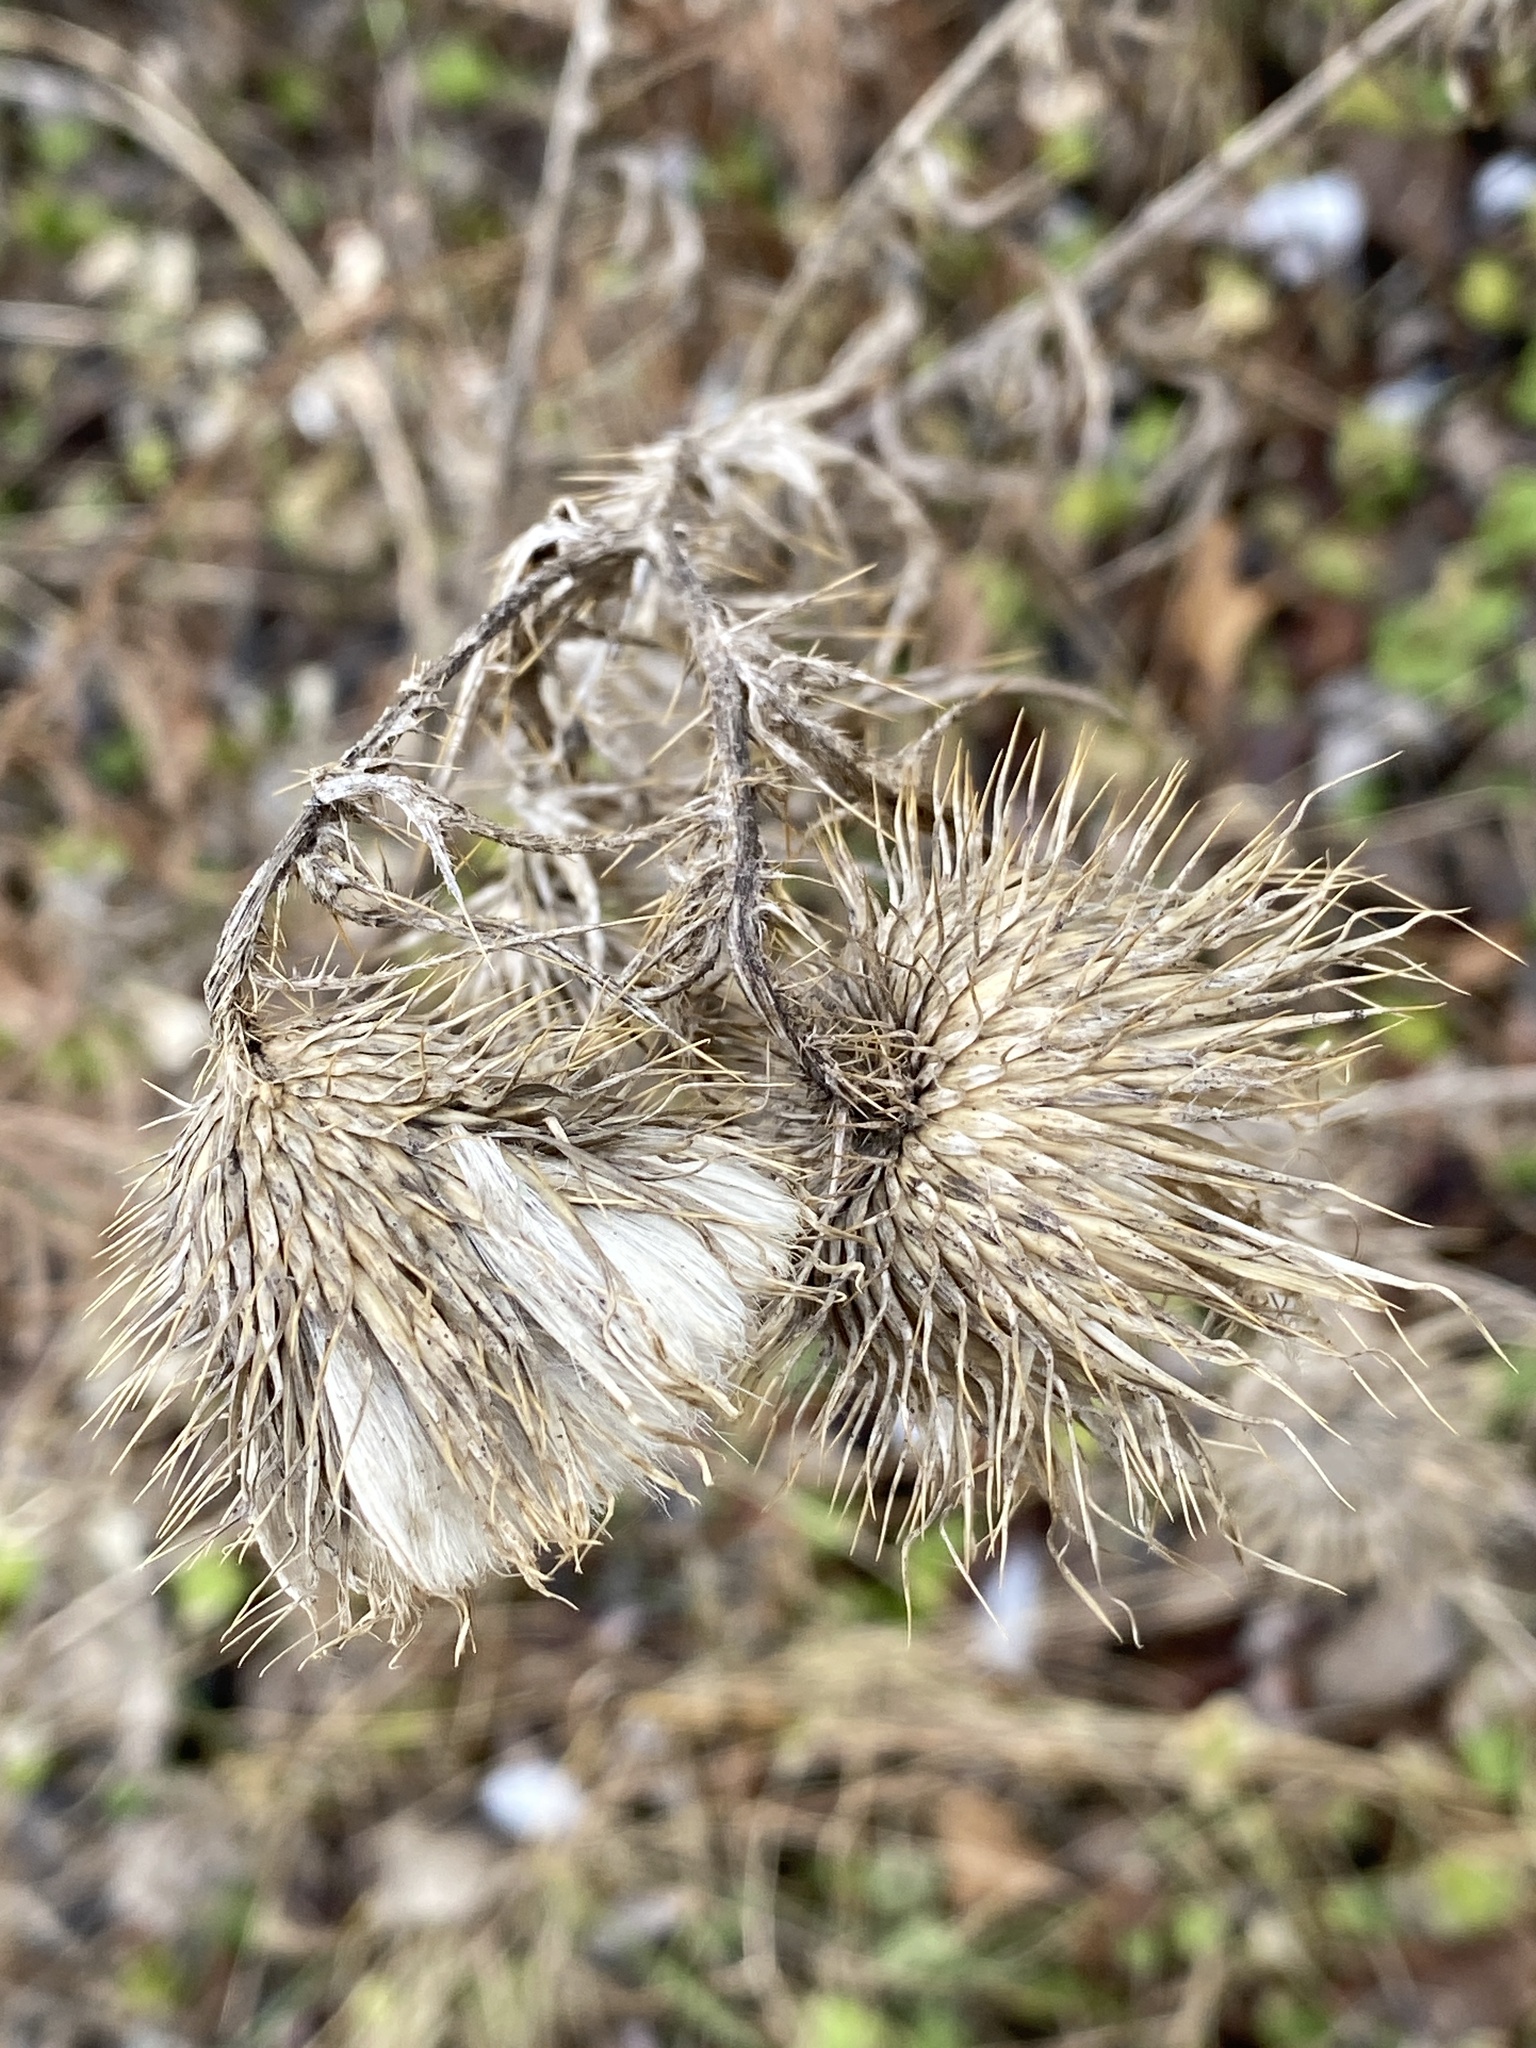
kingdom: Plantae
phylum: Tracheophyta
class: Magnoliopsida
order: Asterales
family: Asteraceae
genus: Cirsium
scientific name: Cirsium vulgare
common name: Bull thistle
